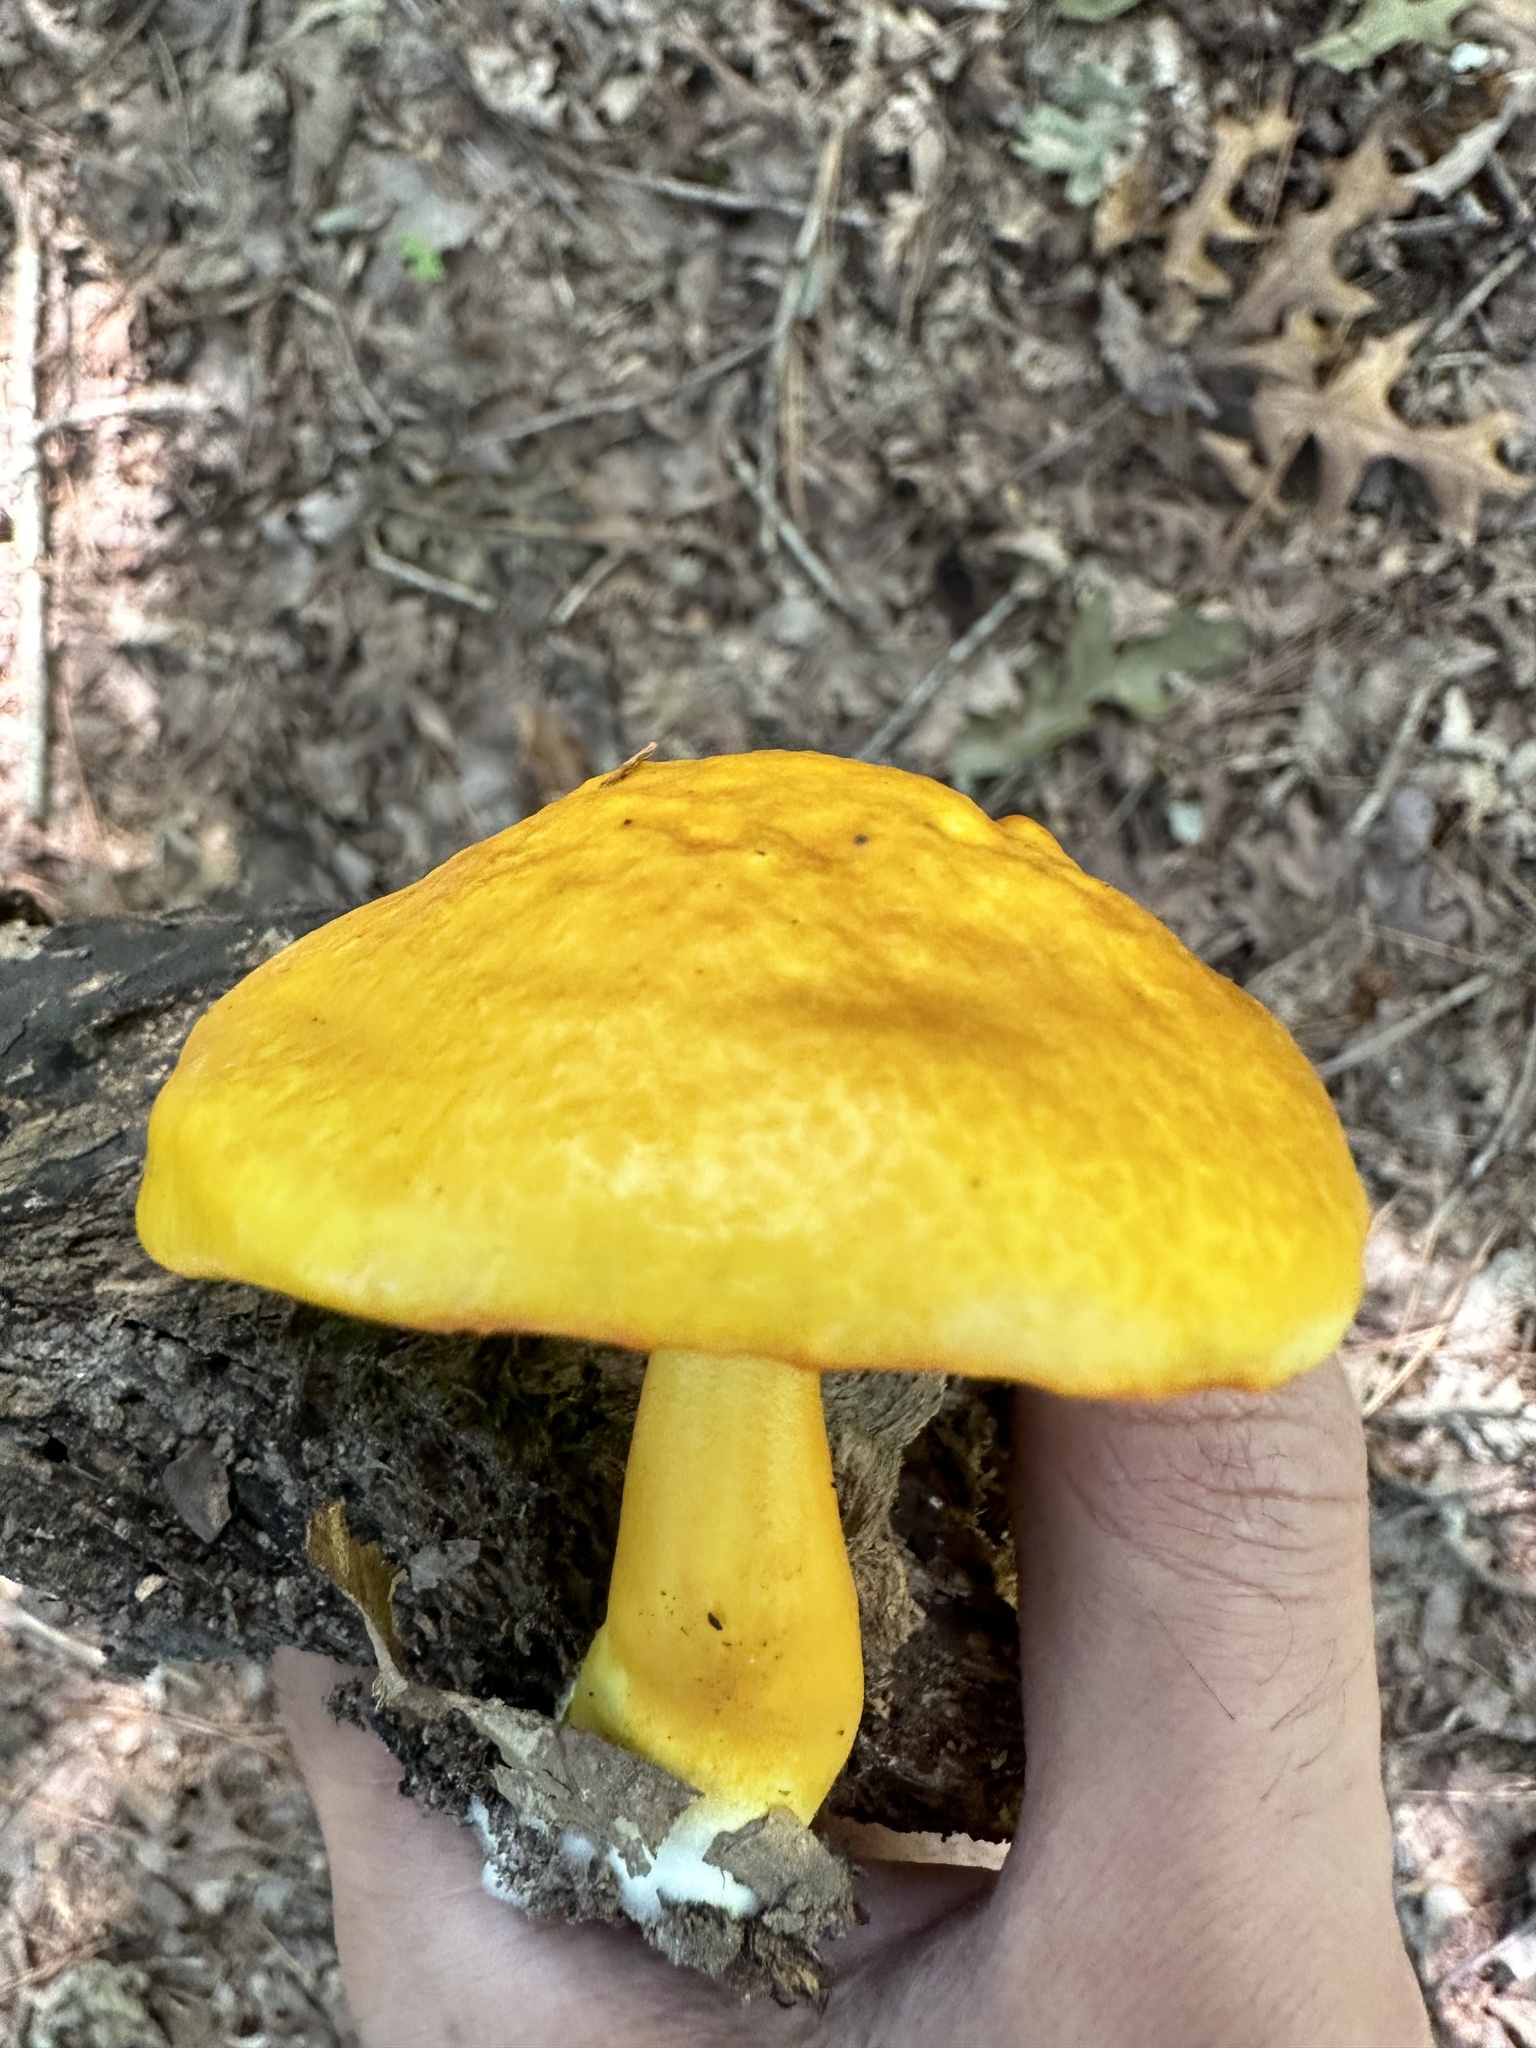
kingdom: Fungi
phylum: Basidiomycota
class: Agaricomycetes
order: Boletales
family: Boletaceae
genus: Pulveroboletus
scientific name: Pulveroboletus curtisii
